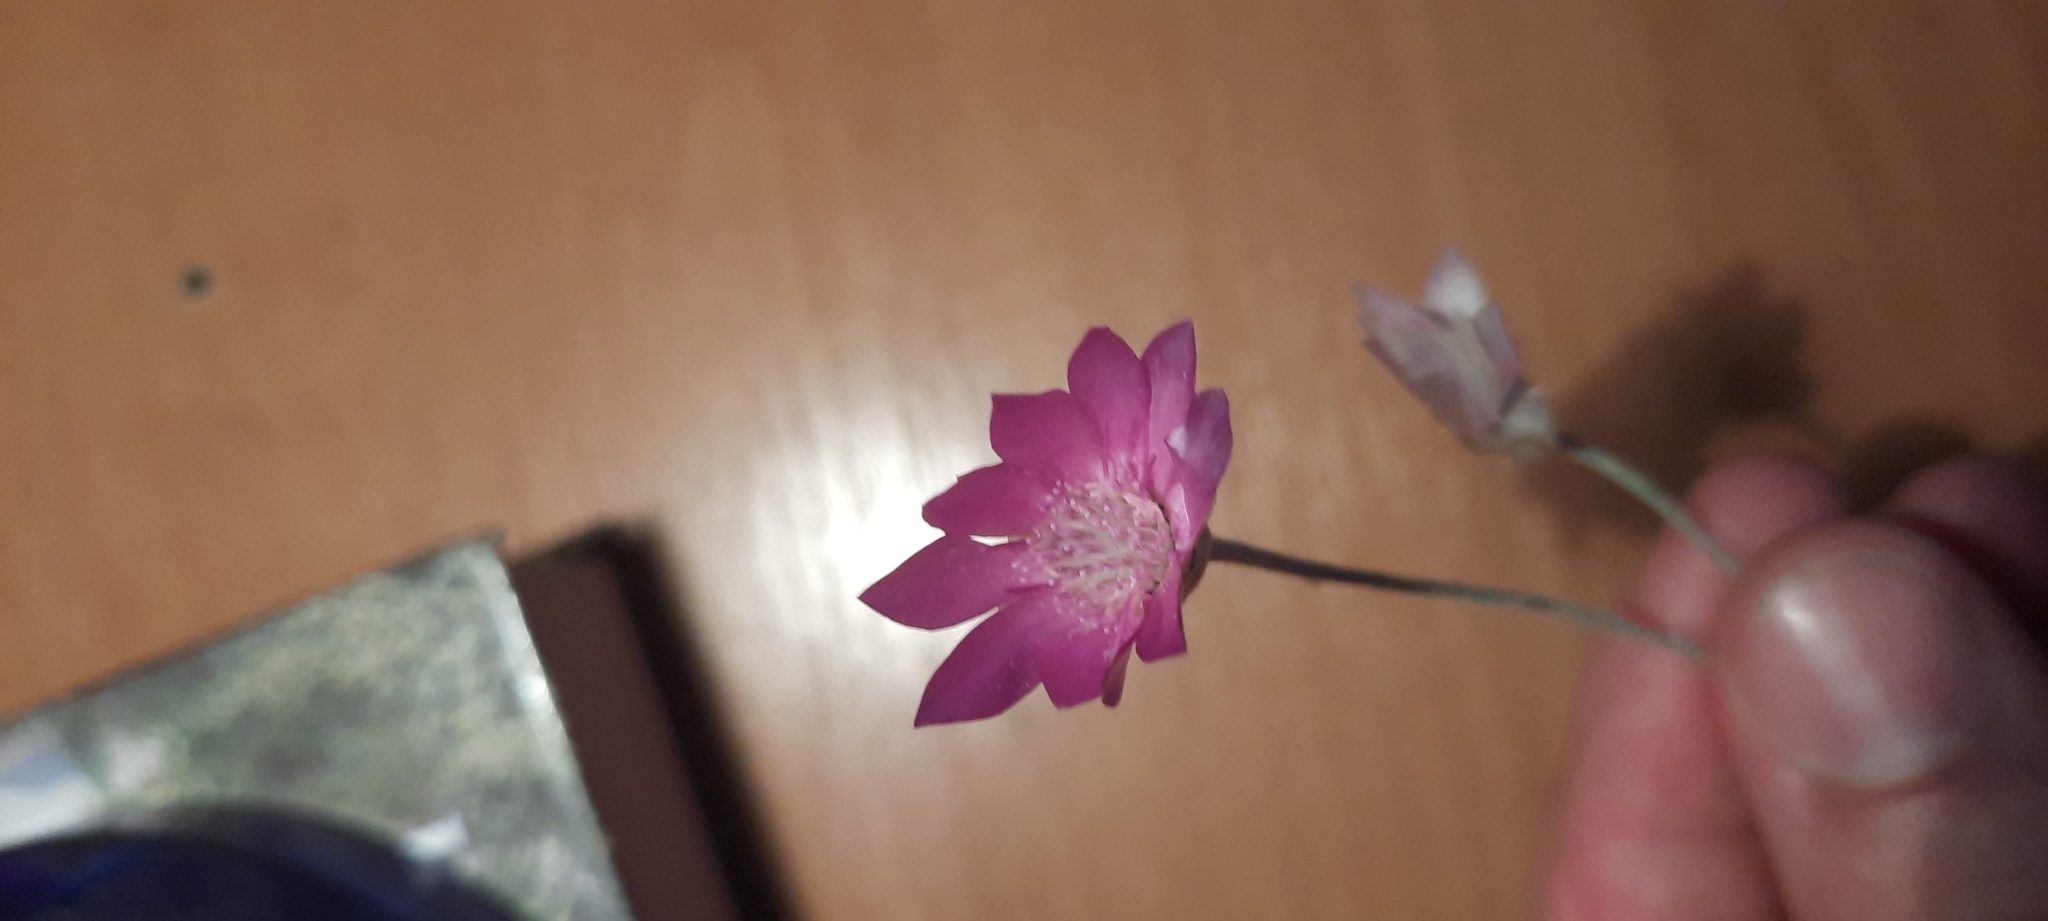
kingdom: Plantae
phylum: Tracheophyta
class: Magnoliopsida
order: Asterales
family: Asteraceae
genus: Xeranthemum
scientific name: Xeranthemum annuum
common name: Immortelle
